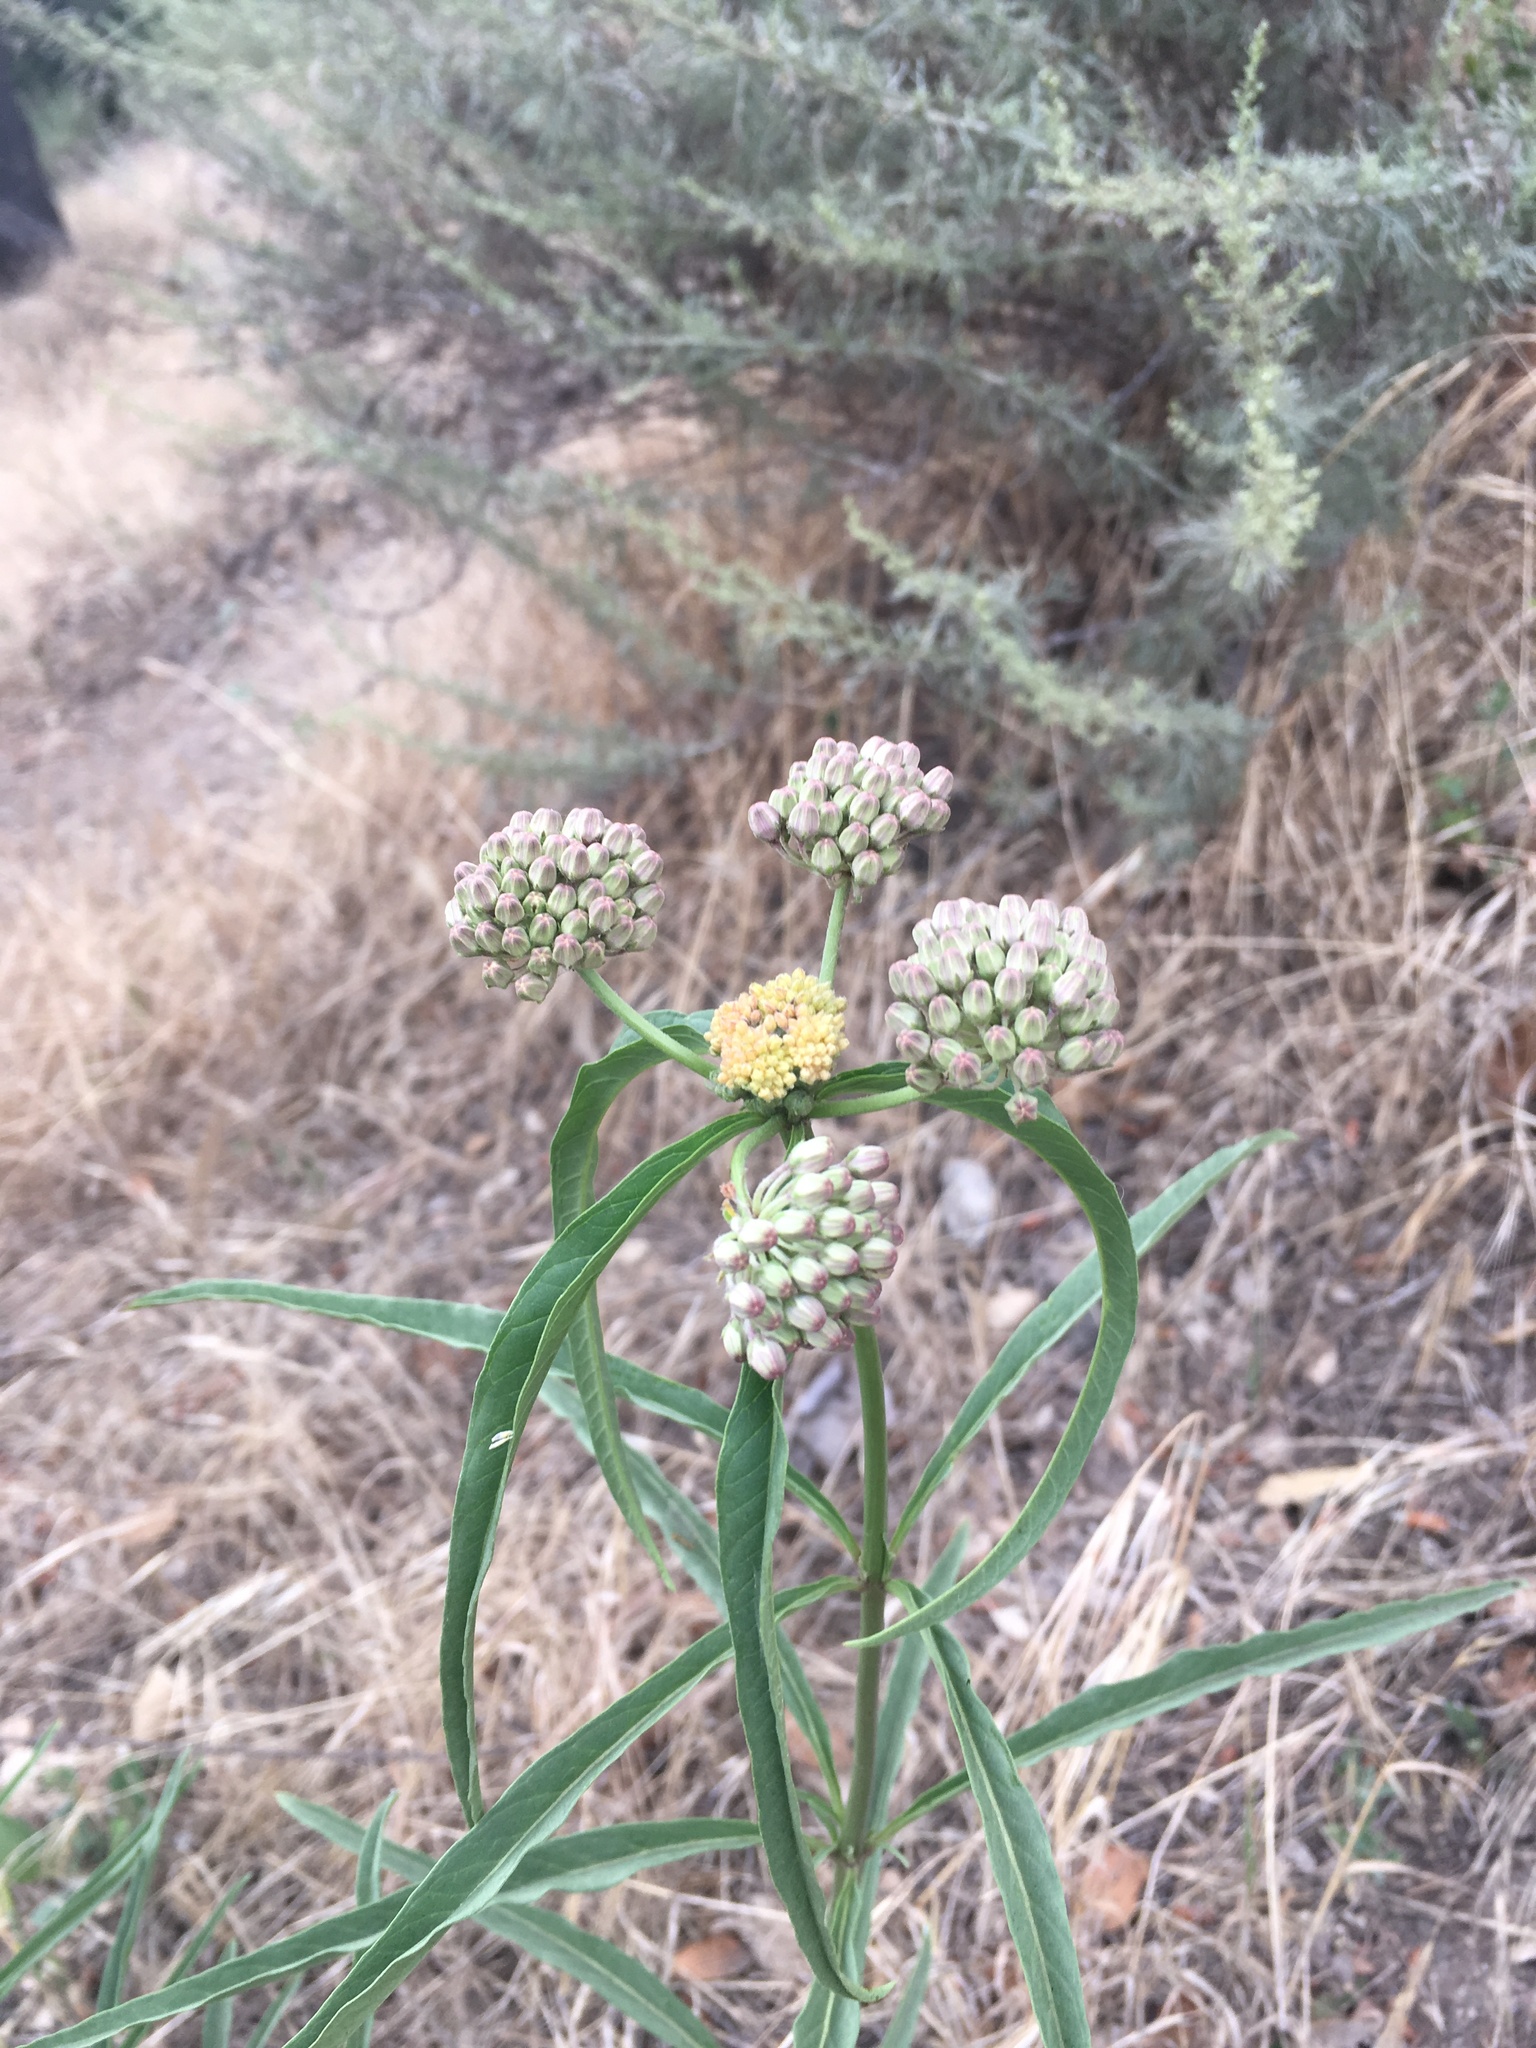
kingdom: Plantae
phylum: Tracheophyta
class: Magnoliopsida
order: Gentianales
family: Apocynaceae
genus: Asclepias
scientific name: Asclepias fascicularis
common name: Mexican milkweed
